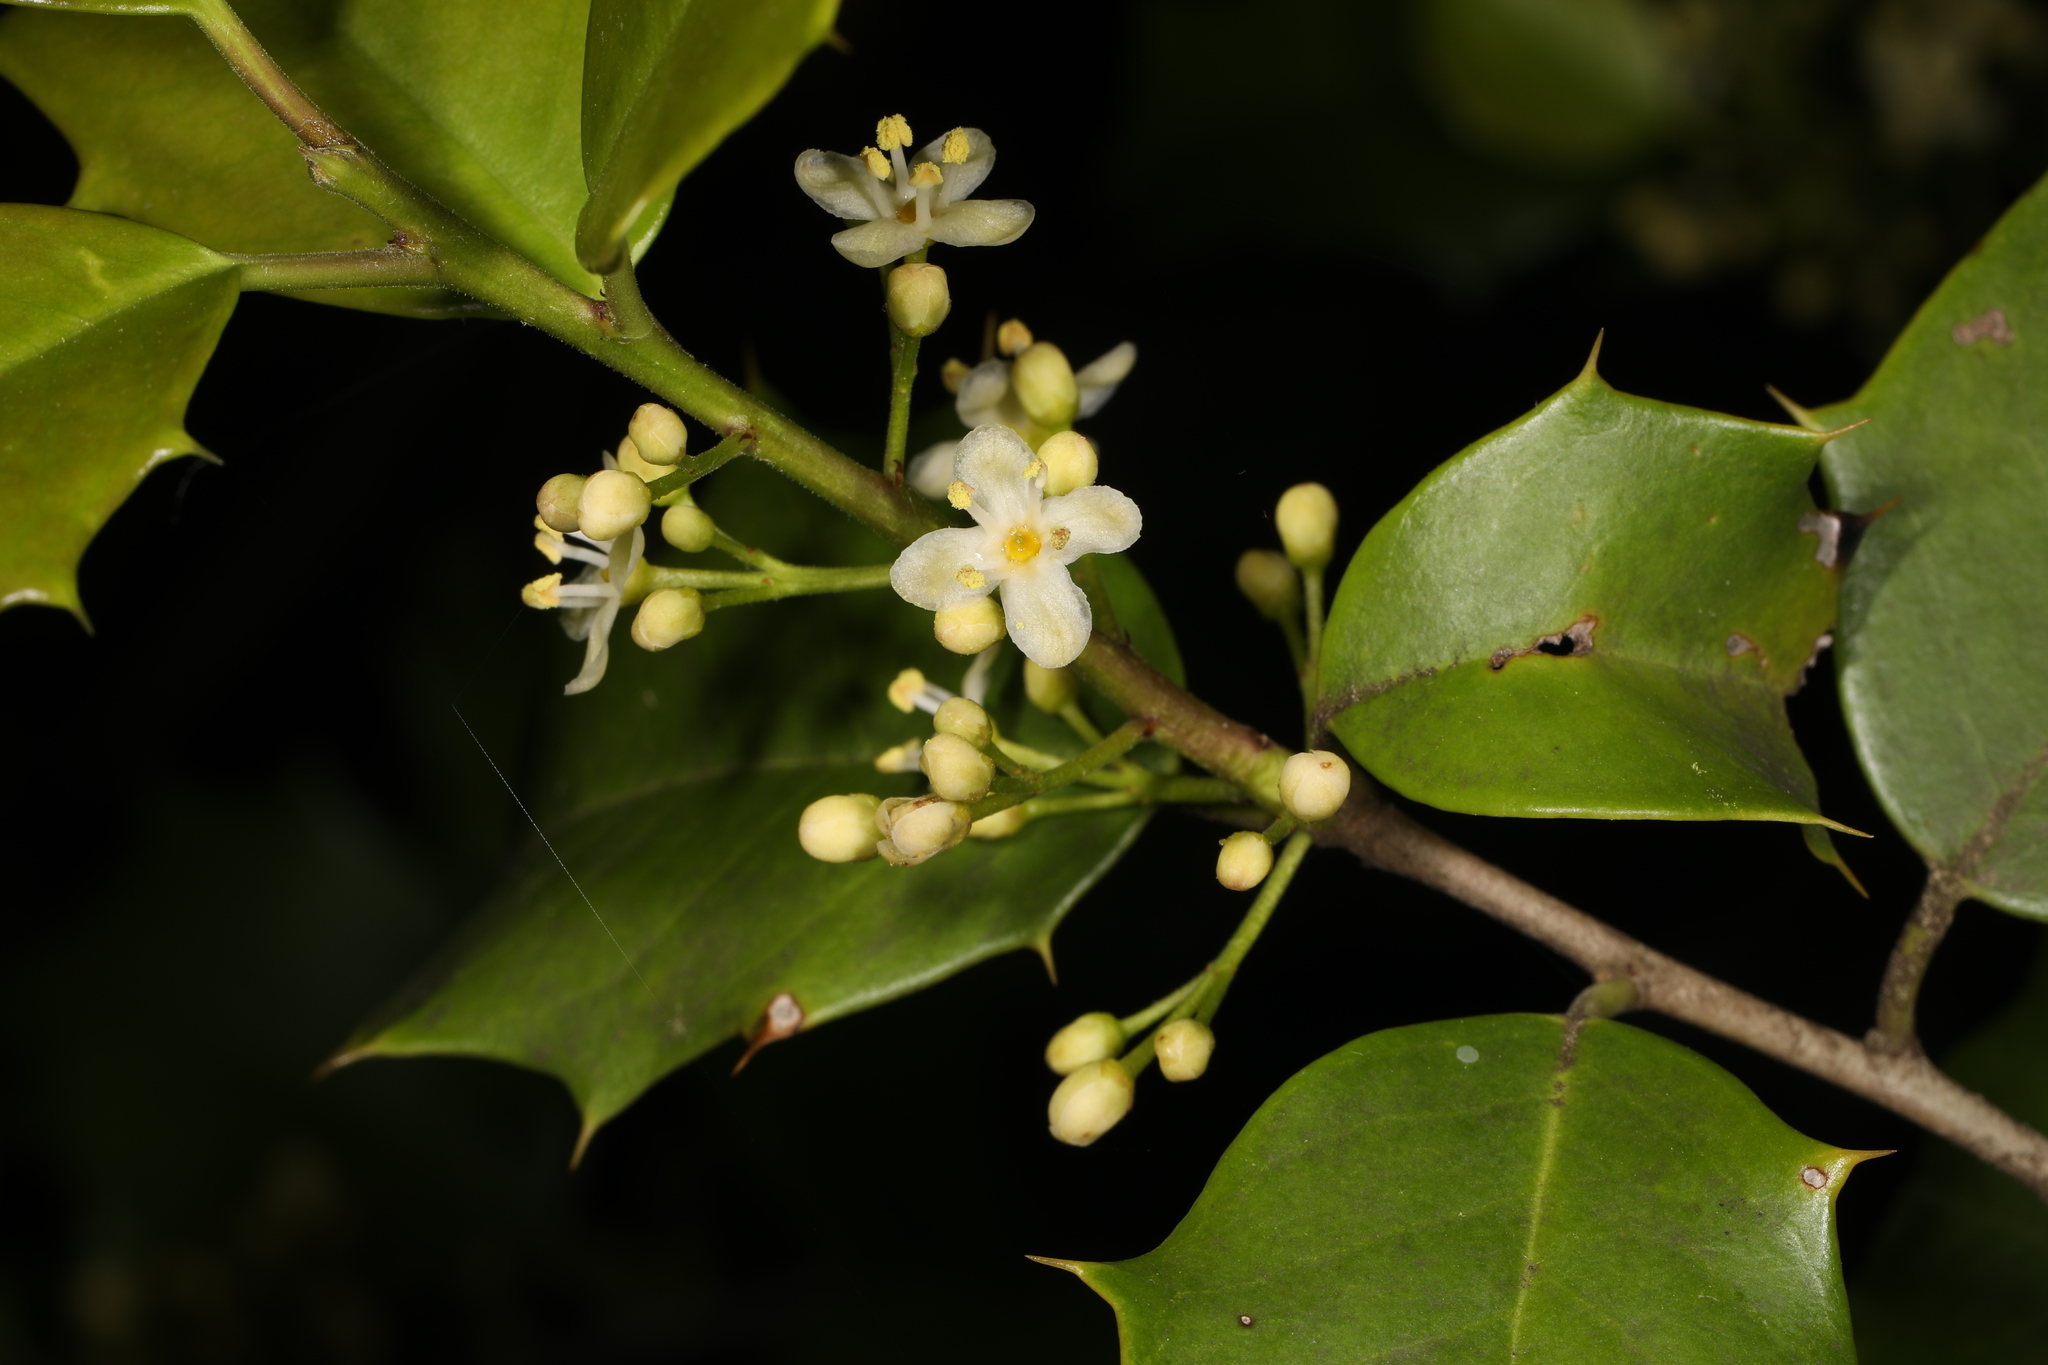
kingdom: Plantae
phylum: Tracheophyta
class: Magnoliopsida
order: Aquifoliales
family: Aquifoliaceae
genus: Ilex
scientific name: Ilex opaca
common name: American holly
